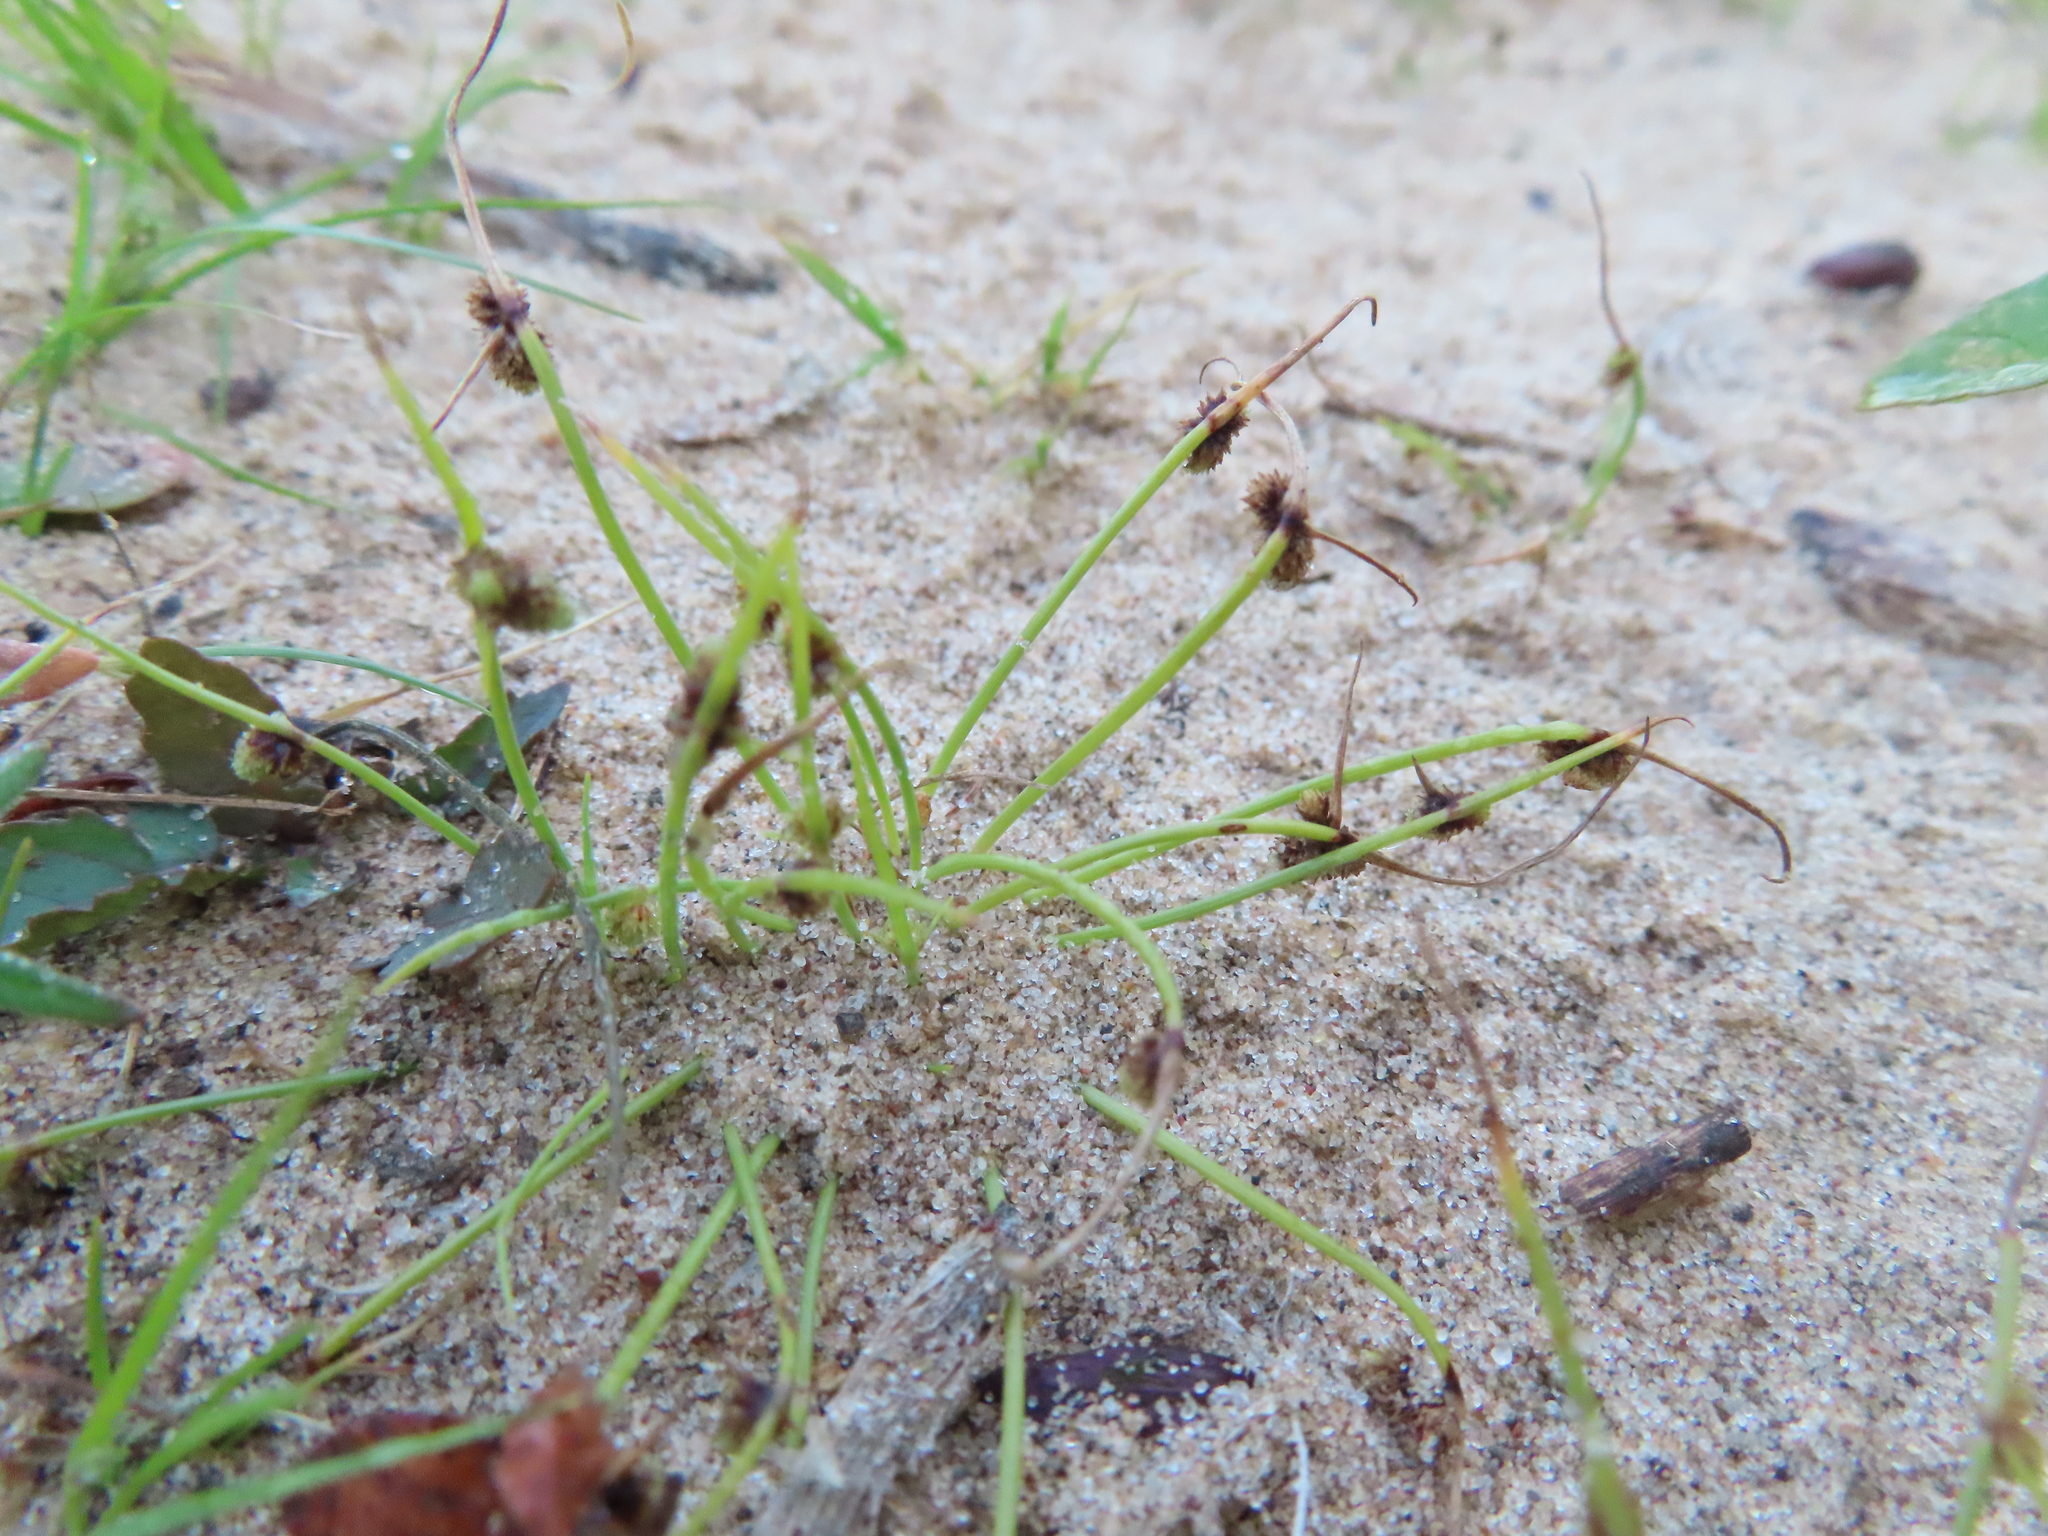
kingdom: Plantae
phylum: Tracheophyta
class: Liliopsida
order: Poales
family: Cyperaceae
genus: Cyperus
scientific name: Cyperus subsquarrosus
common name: Dwarf bulrush
